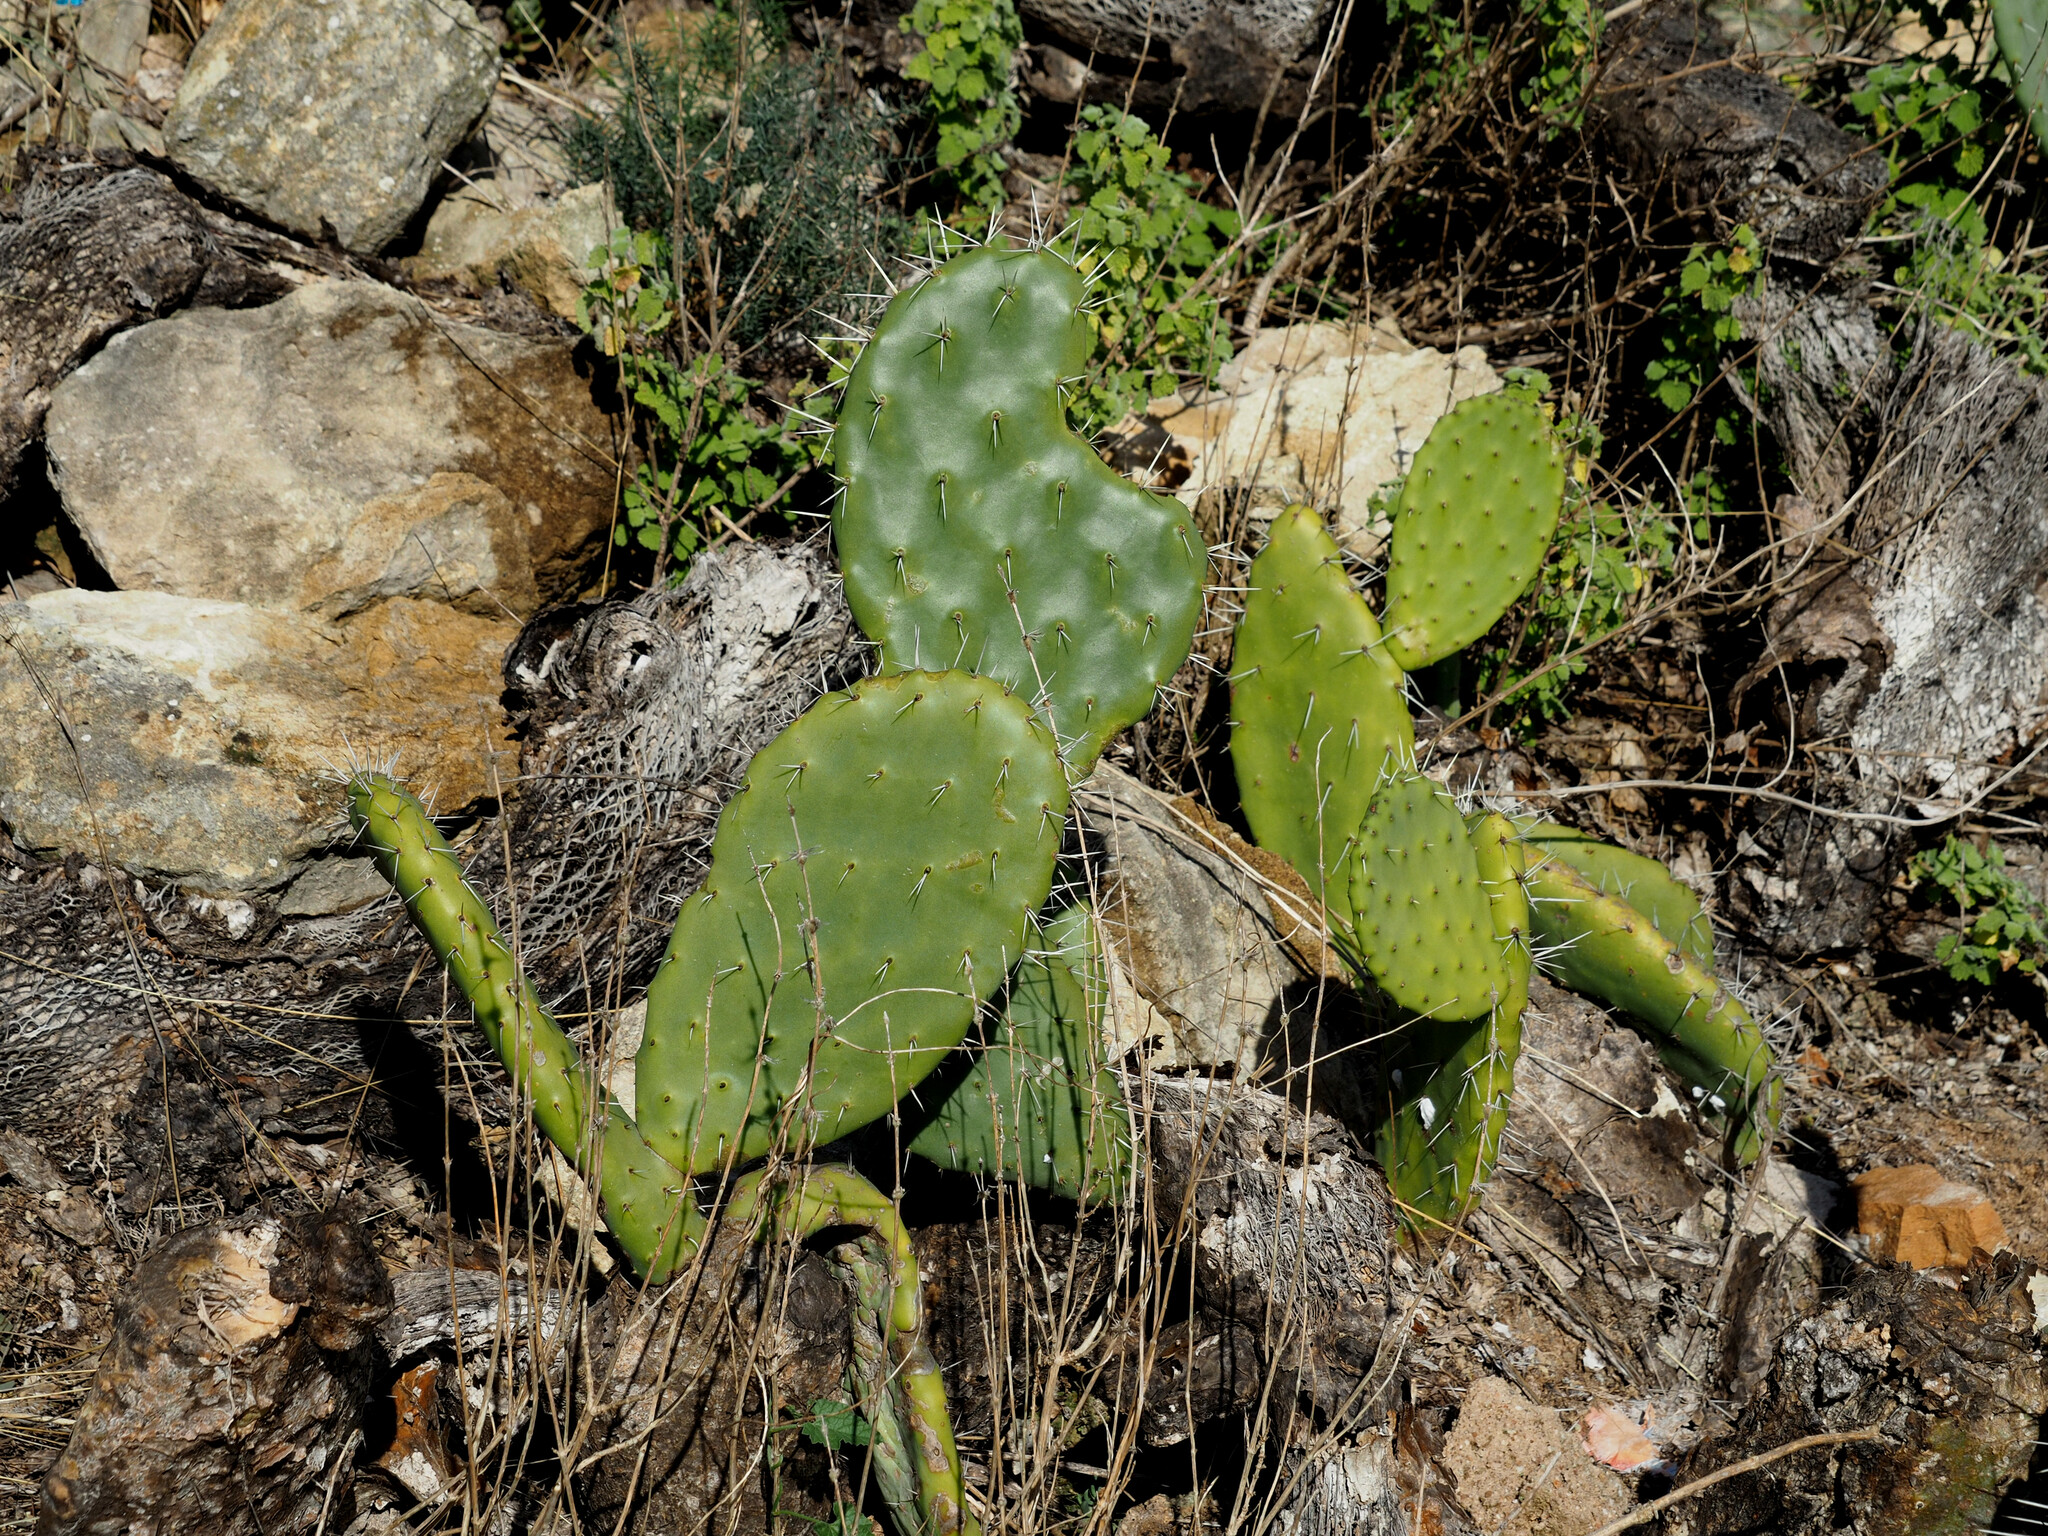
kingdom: Plantae
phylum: Tracheophyta
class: Magnoliopsida
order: Caryophyllales
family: Cactaceae
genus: Opuntia
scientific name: Opuntia ficus-indica
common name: Barbary fig
